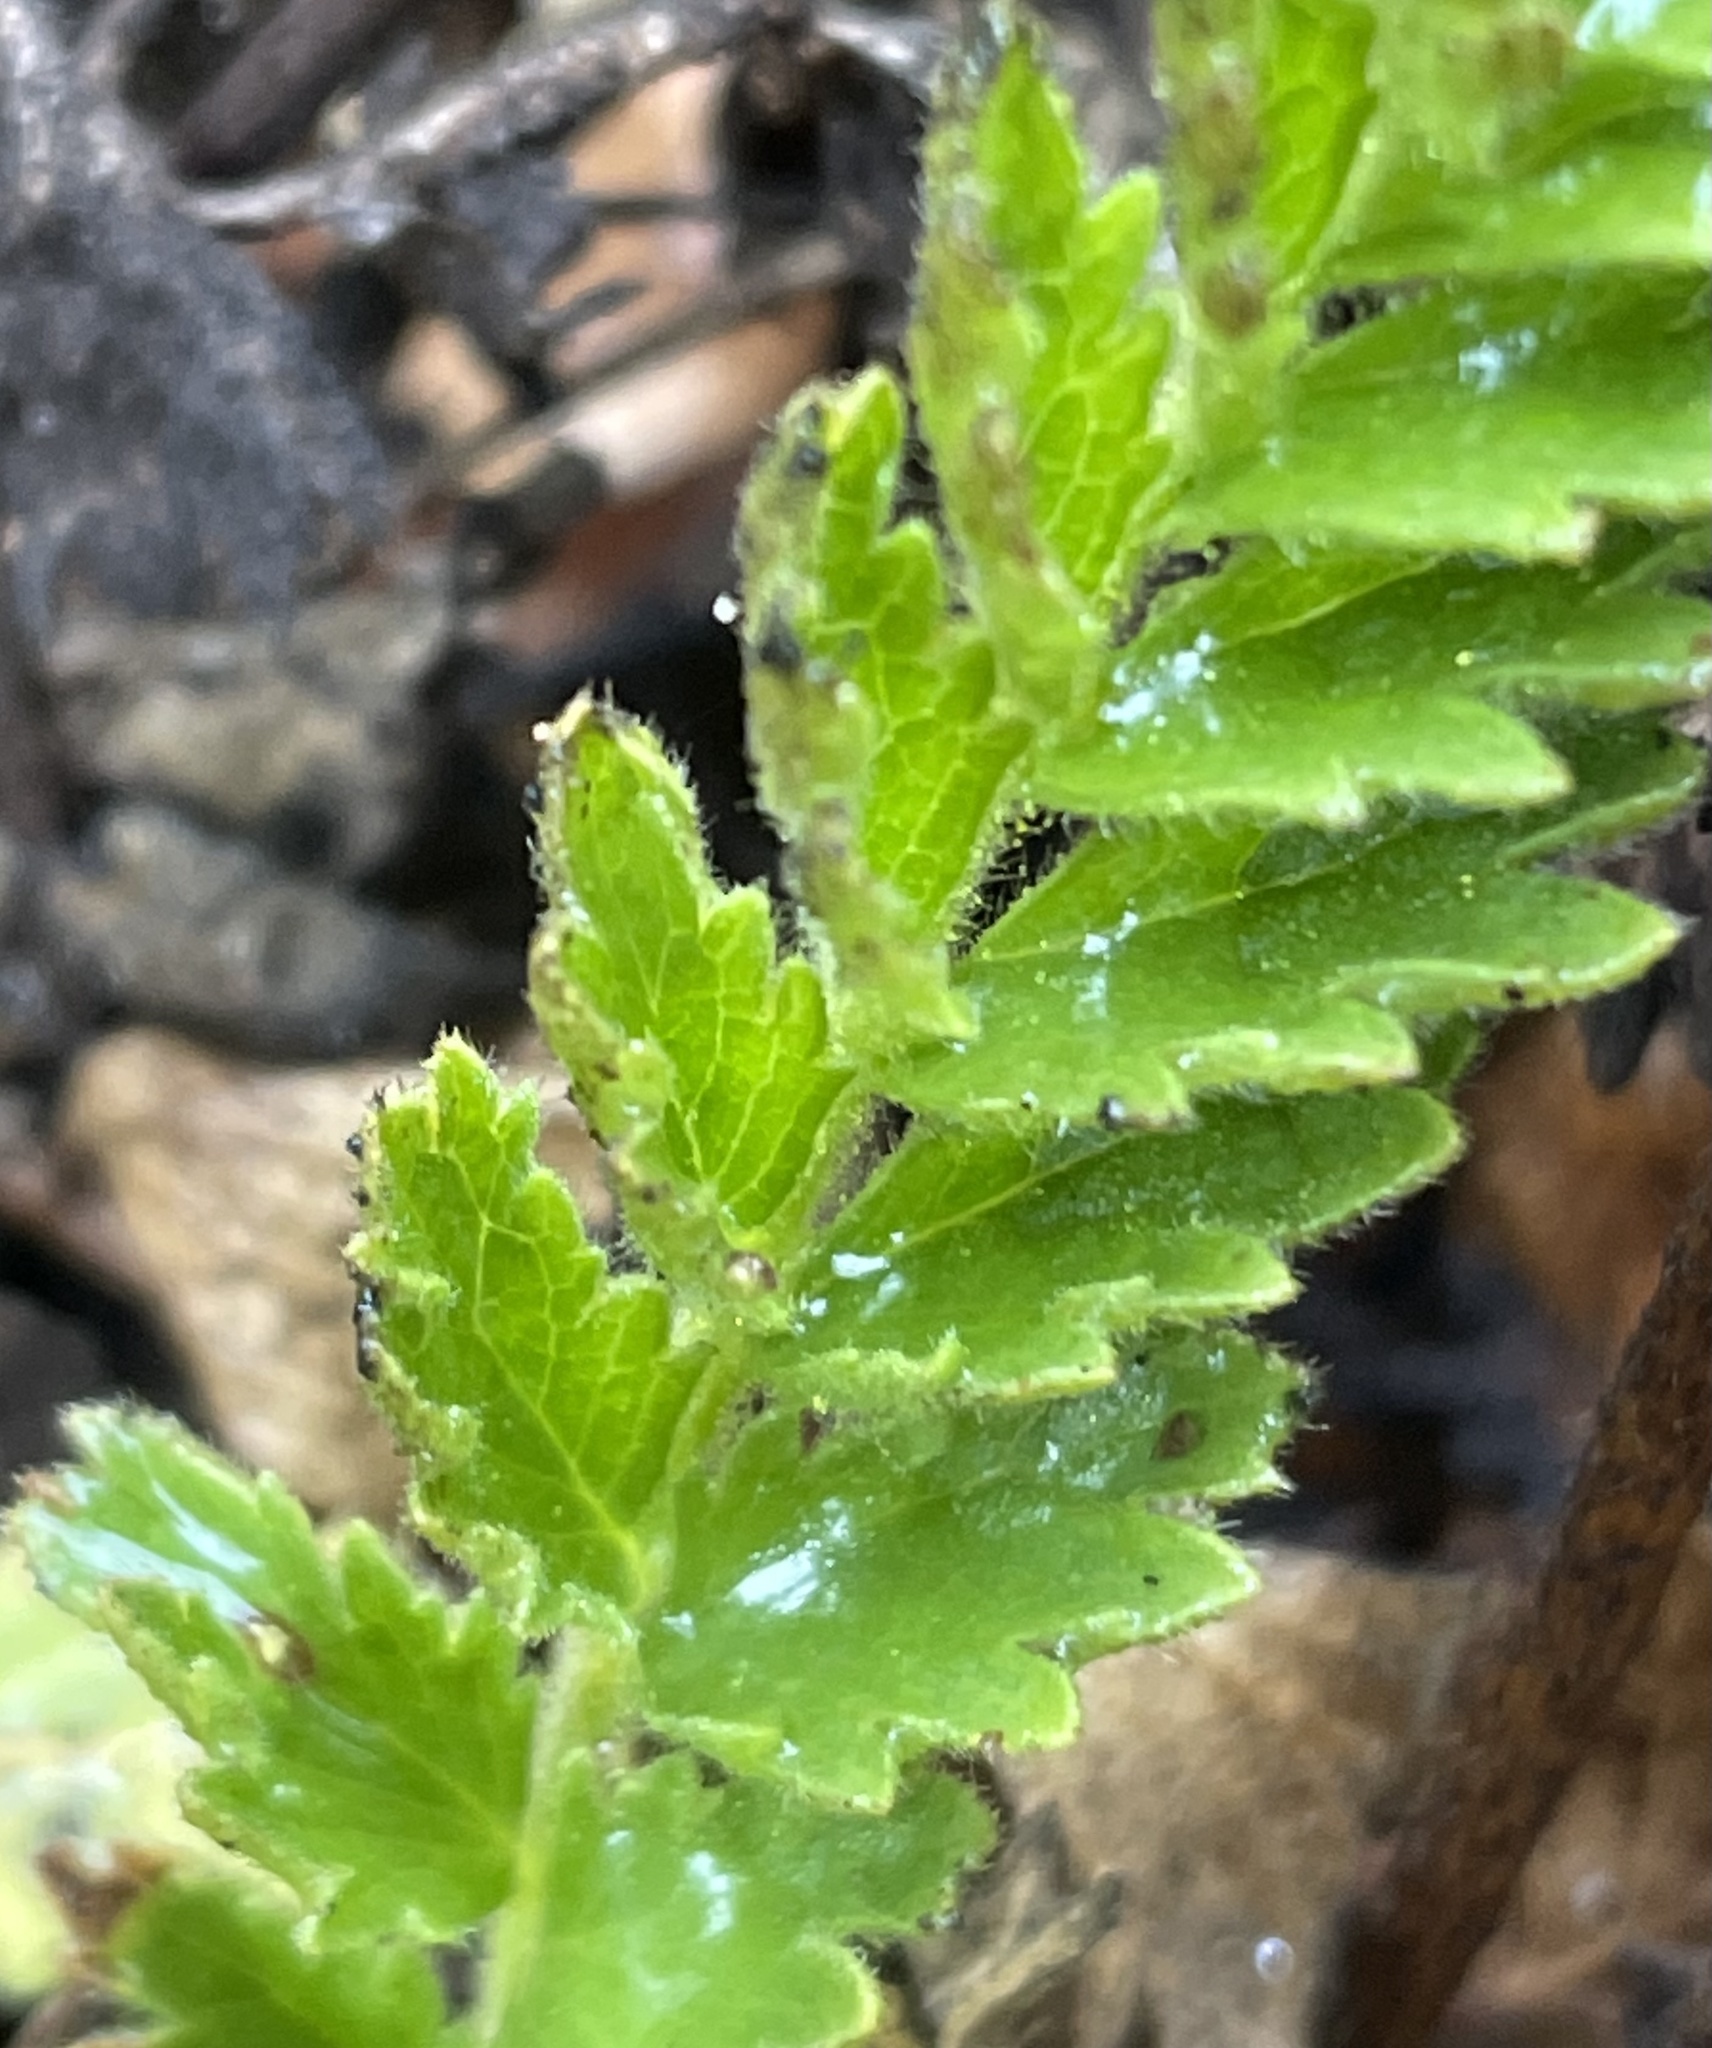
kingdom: Plantae
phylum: Tracheophyta
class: Magnoliopsida
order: Rosales
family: Rosaceae
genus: Potentilla
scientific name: Potentilla
